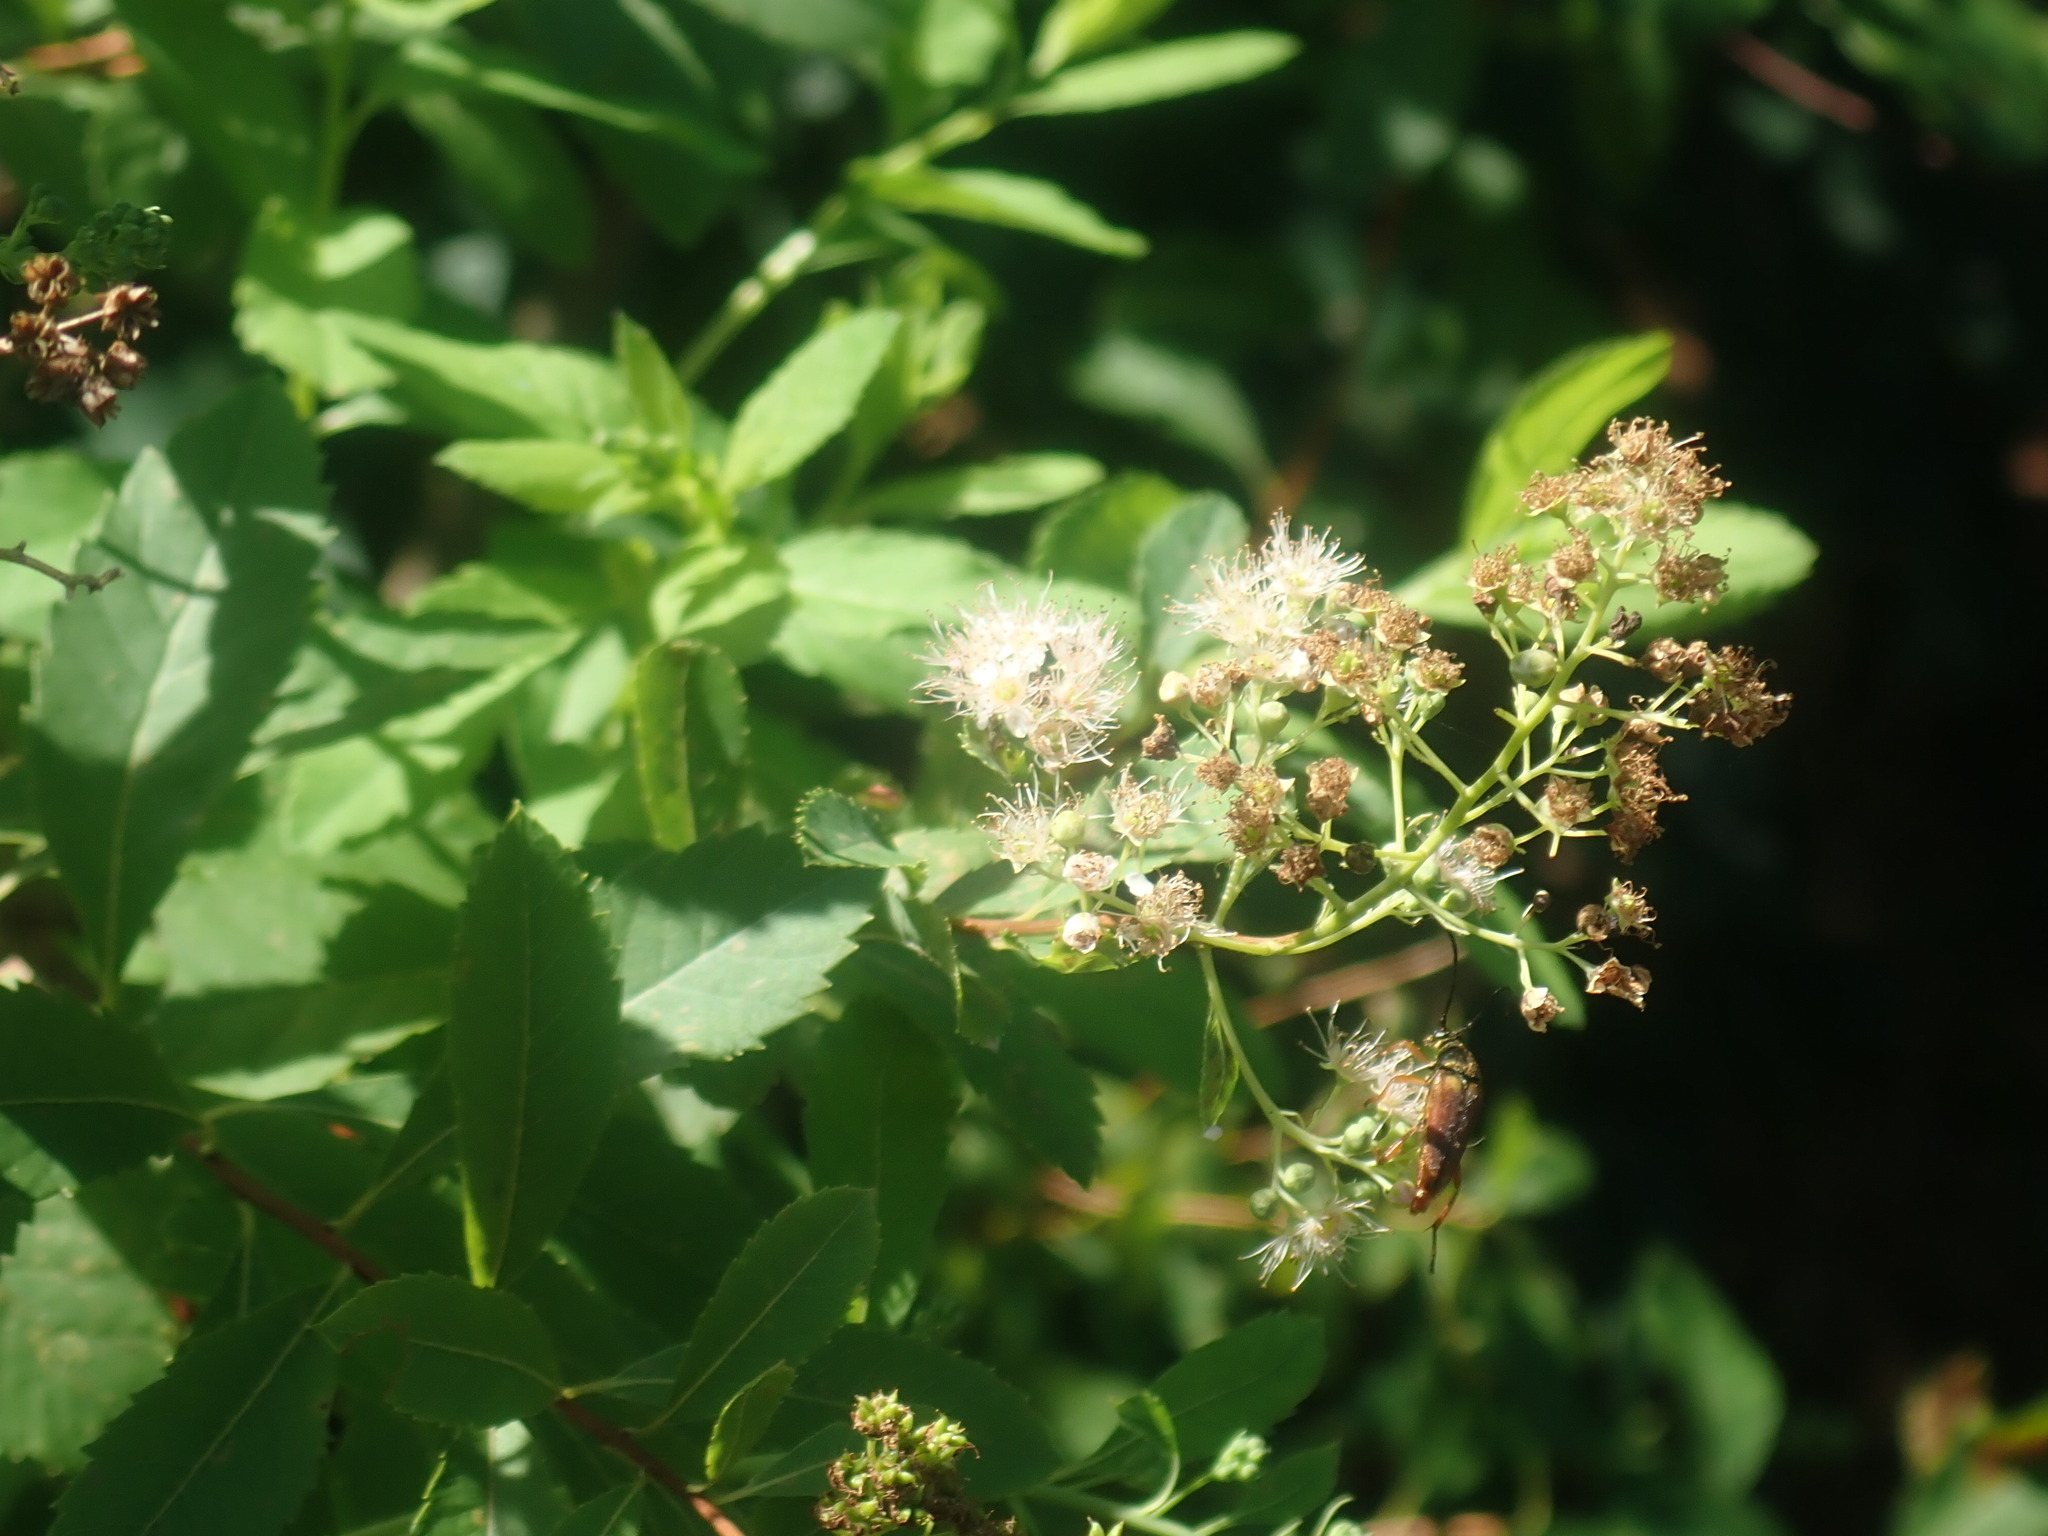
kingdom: Plantae
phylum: Tracheophyta
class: Magnoliopsida
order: Rosales
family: Rosaceae
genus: Spiraea
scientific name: Spiraea alba
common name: Pale bridewort
